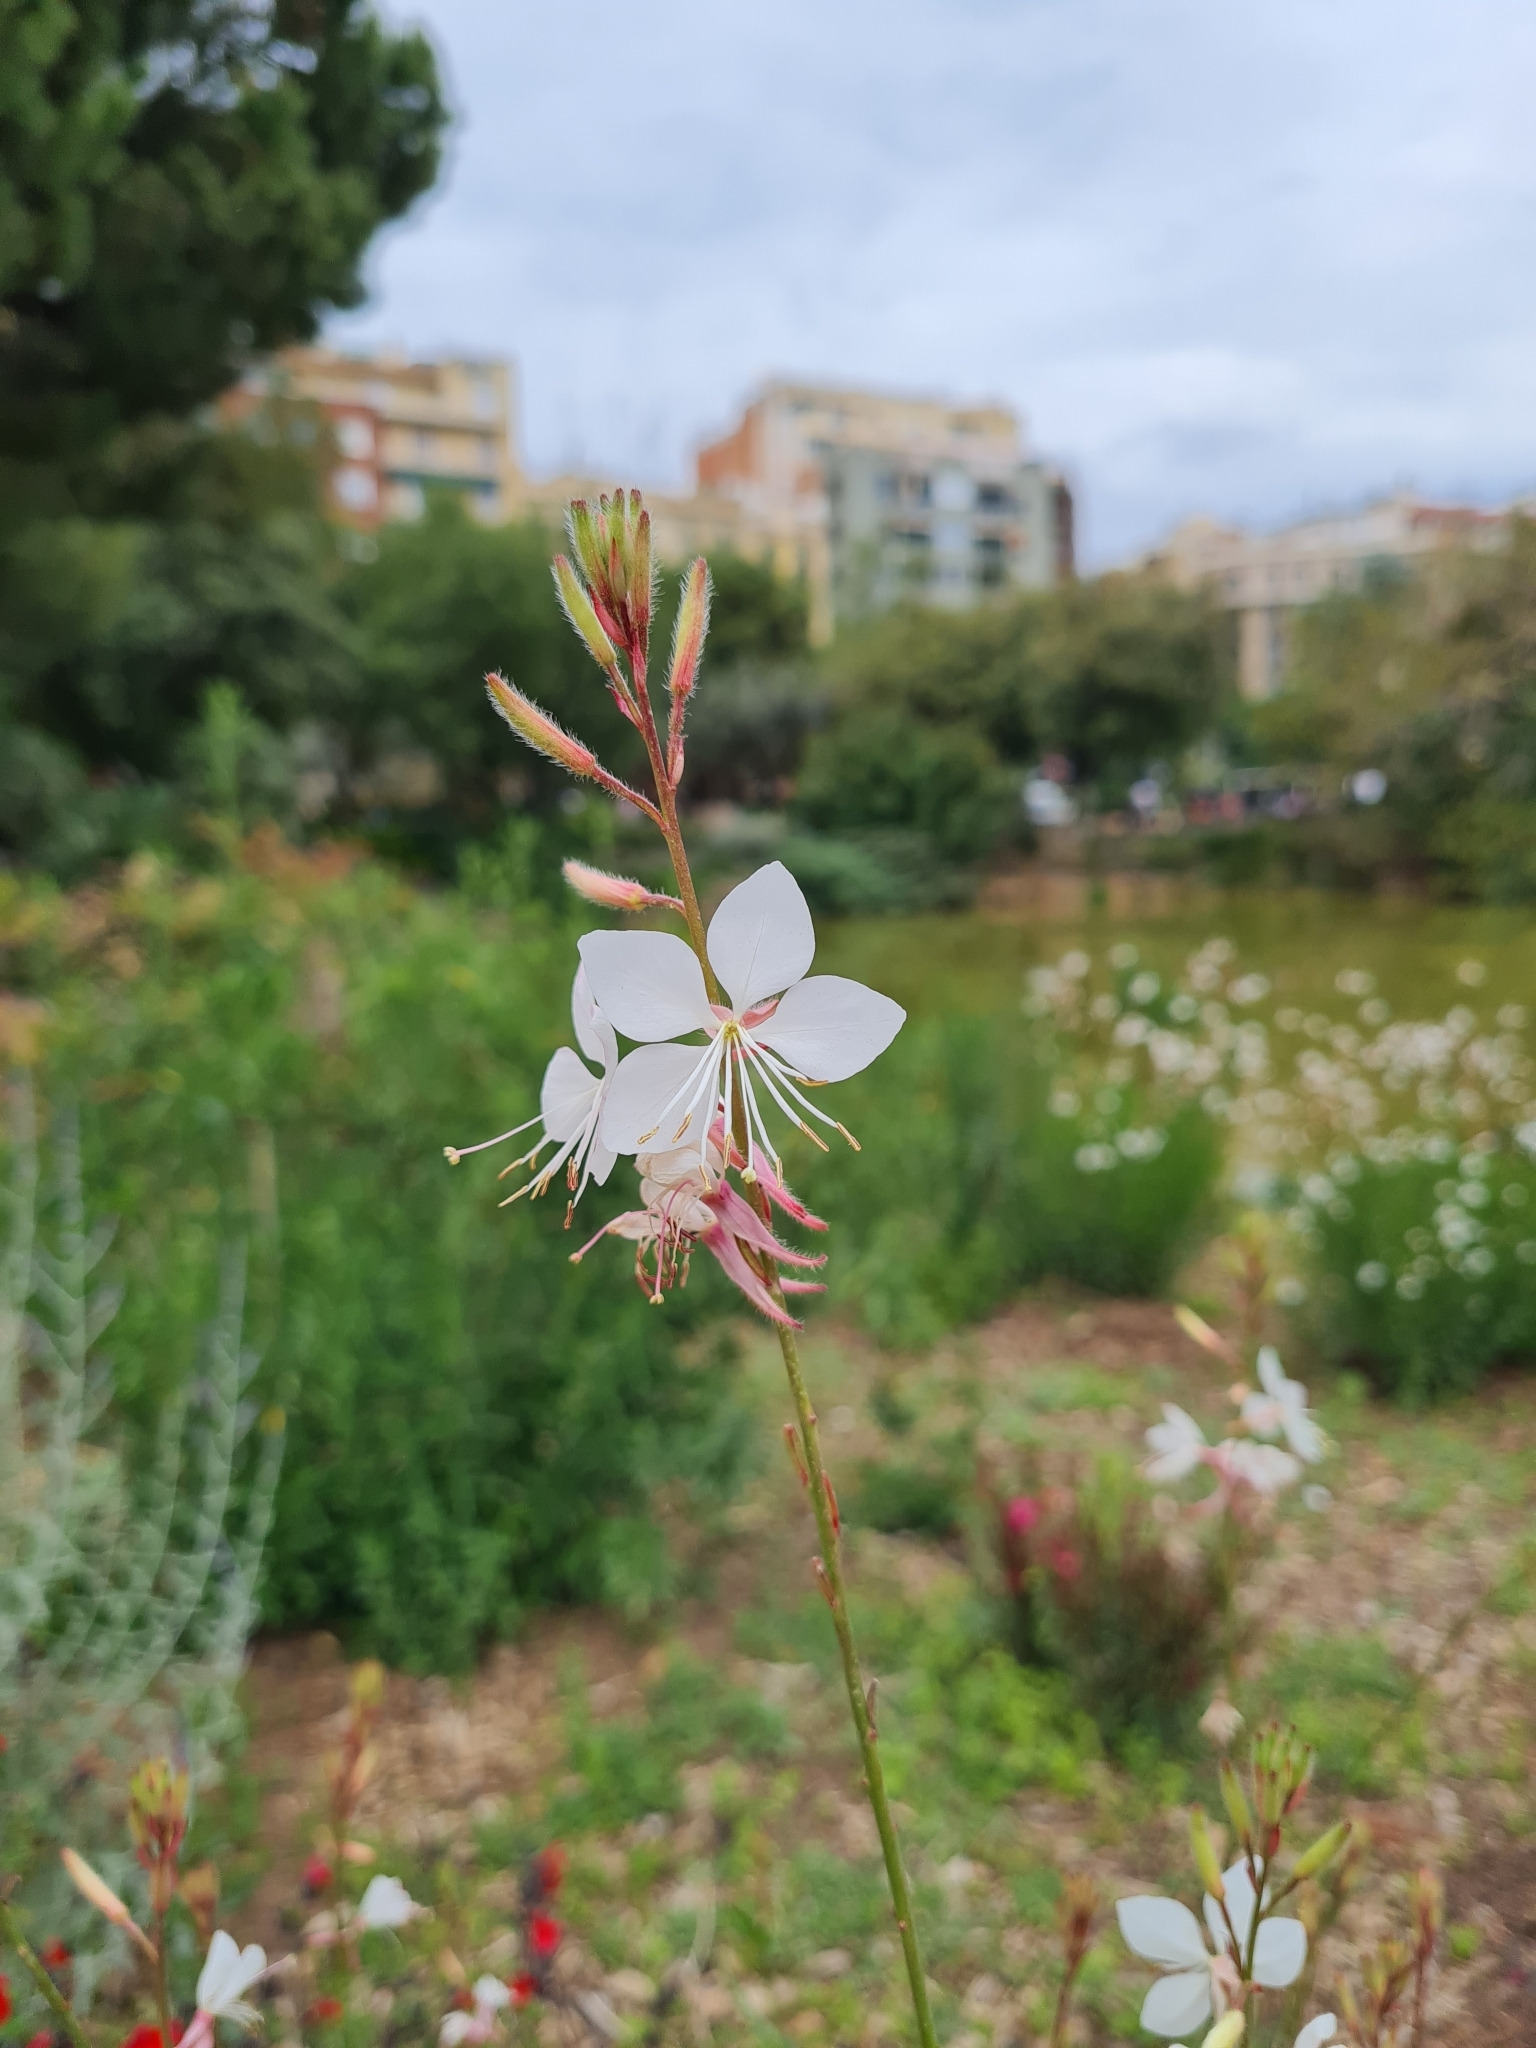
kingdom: Plantae
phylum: Tracheophyta
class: Magnoliopsida
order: Myrtales
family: Onagraceae
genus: Oenothera
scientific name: Oenothera lindheimeri
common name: Lindheimer's beeblossom
